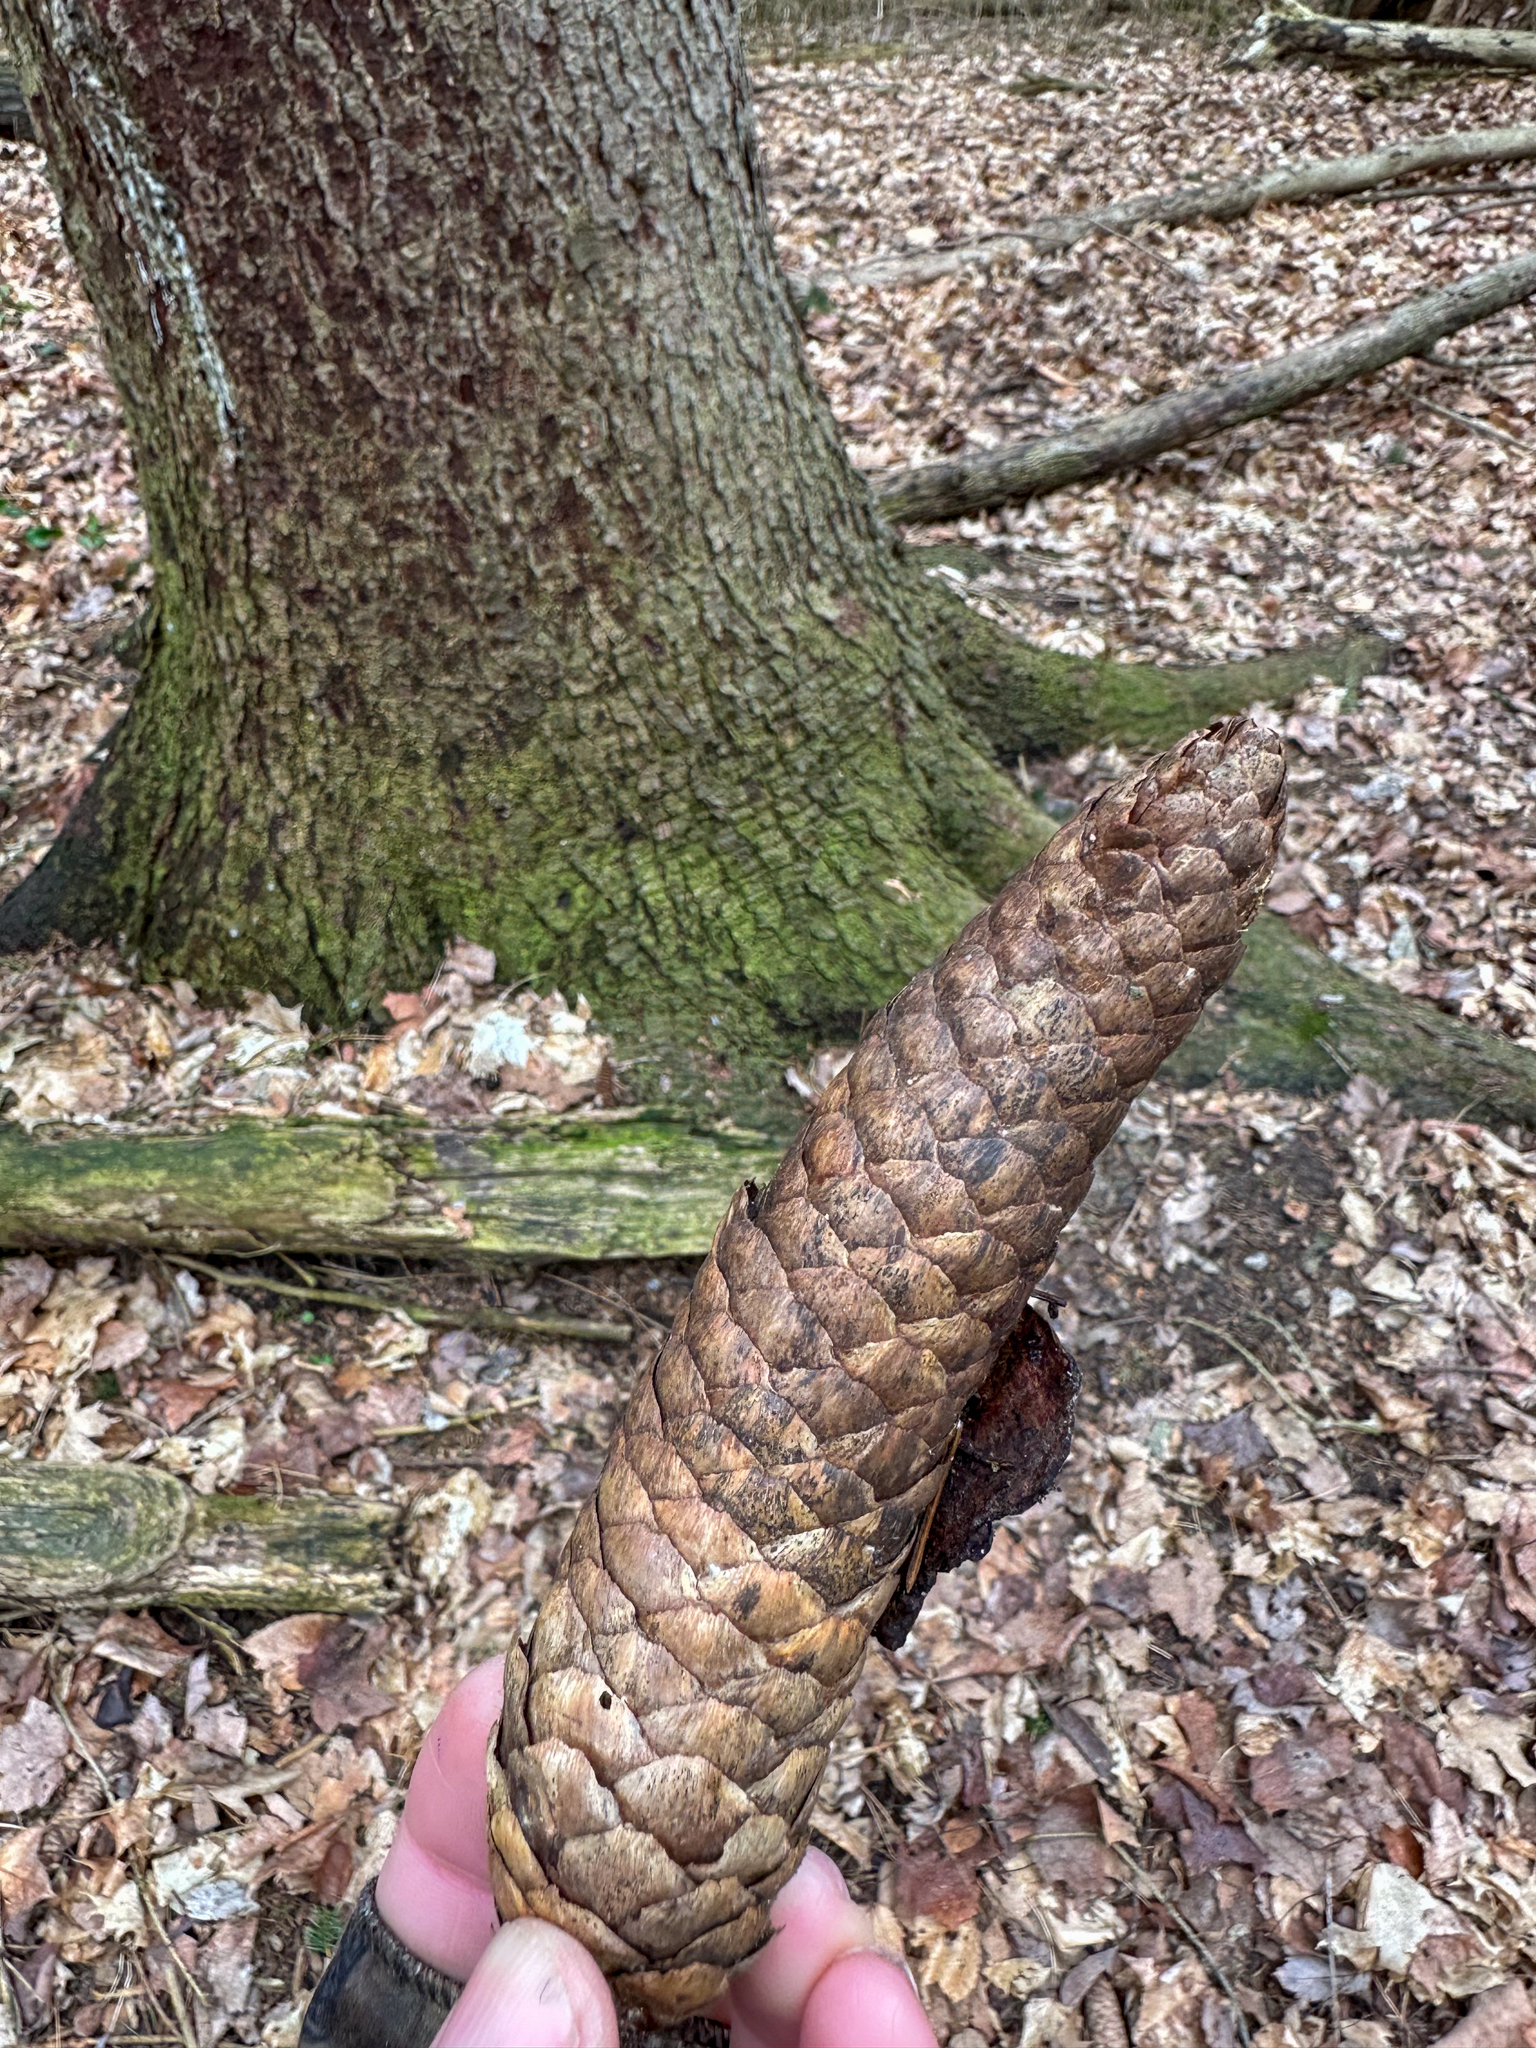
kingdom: Plantae
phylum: Tracheophyta
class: Pinopsida
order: Pinales
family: Pinaceae
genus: Picea
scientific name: Picea abies
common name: Norway spruce
